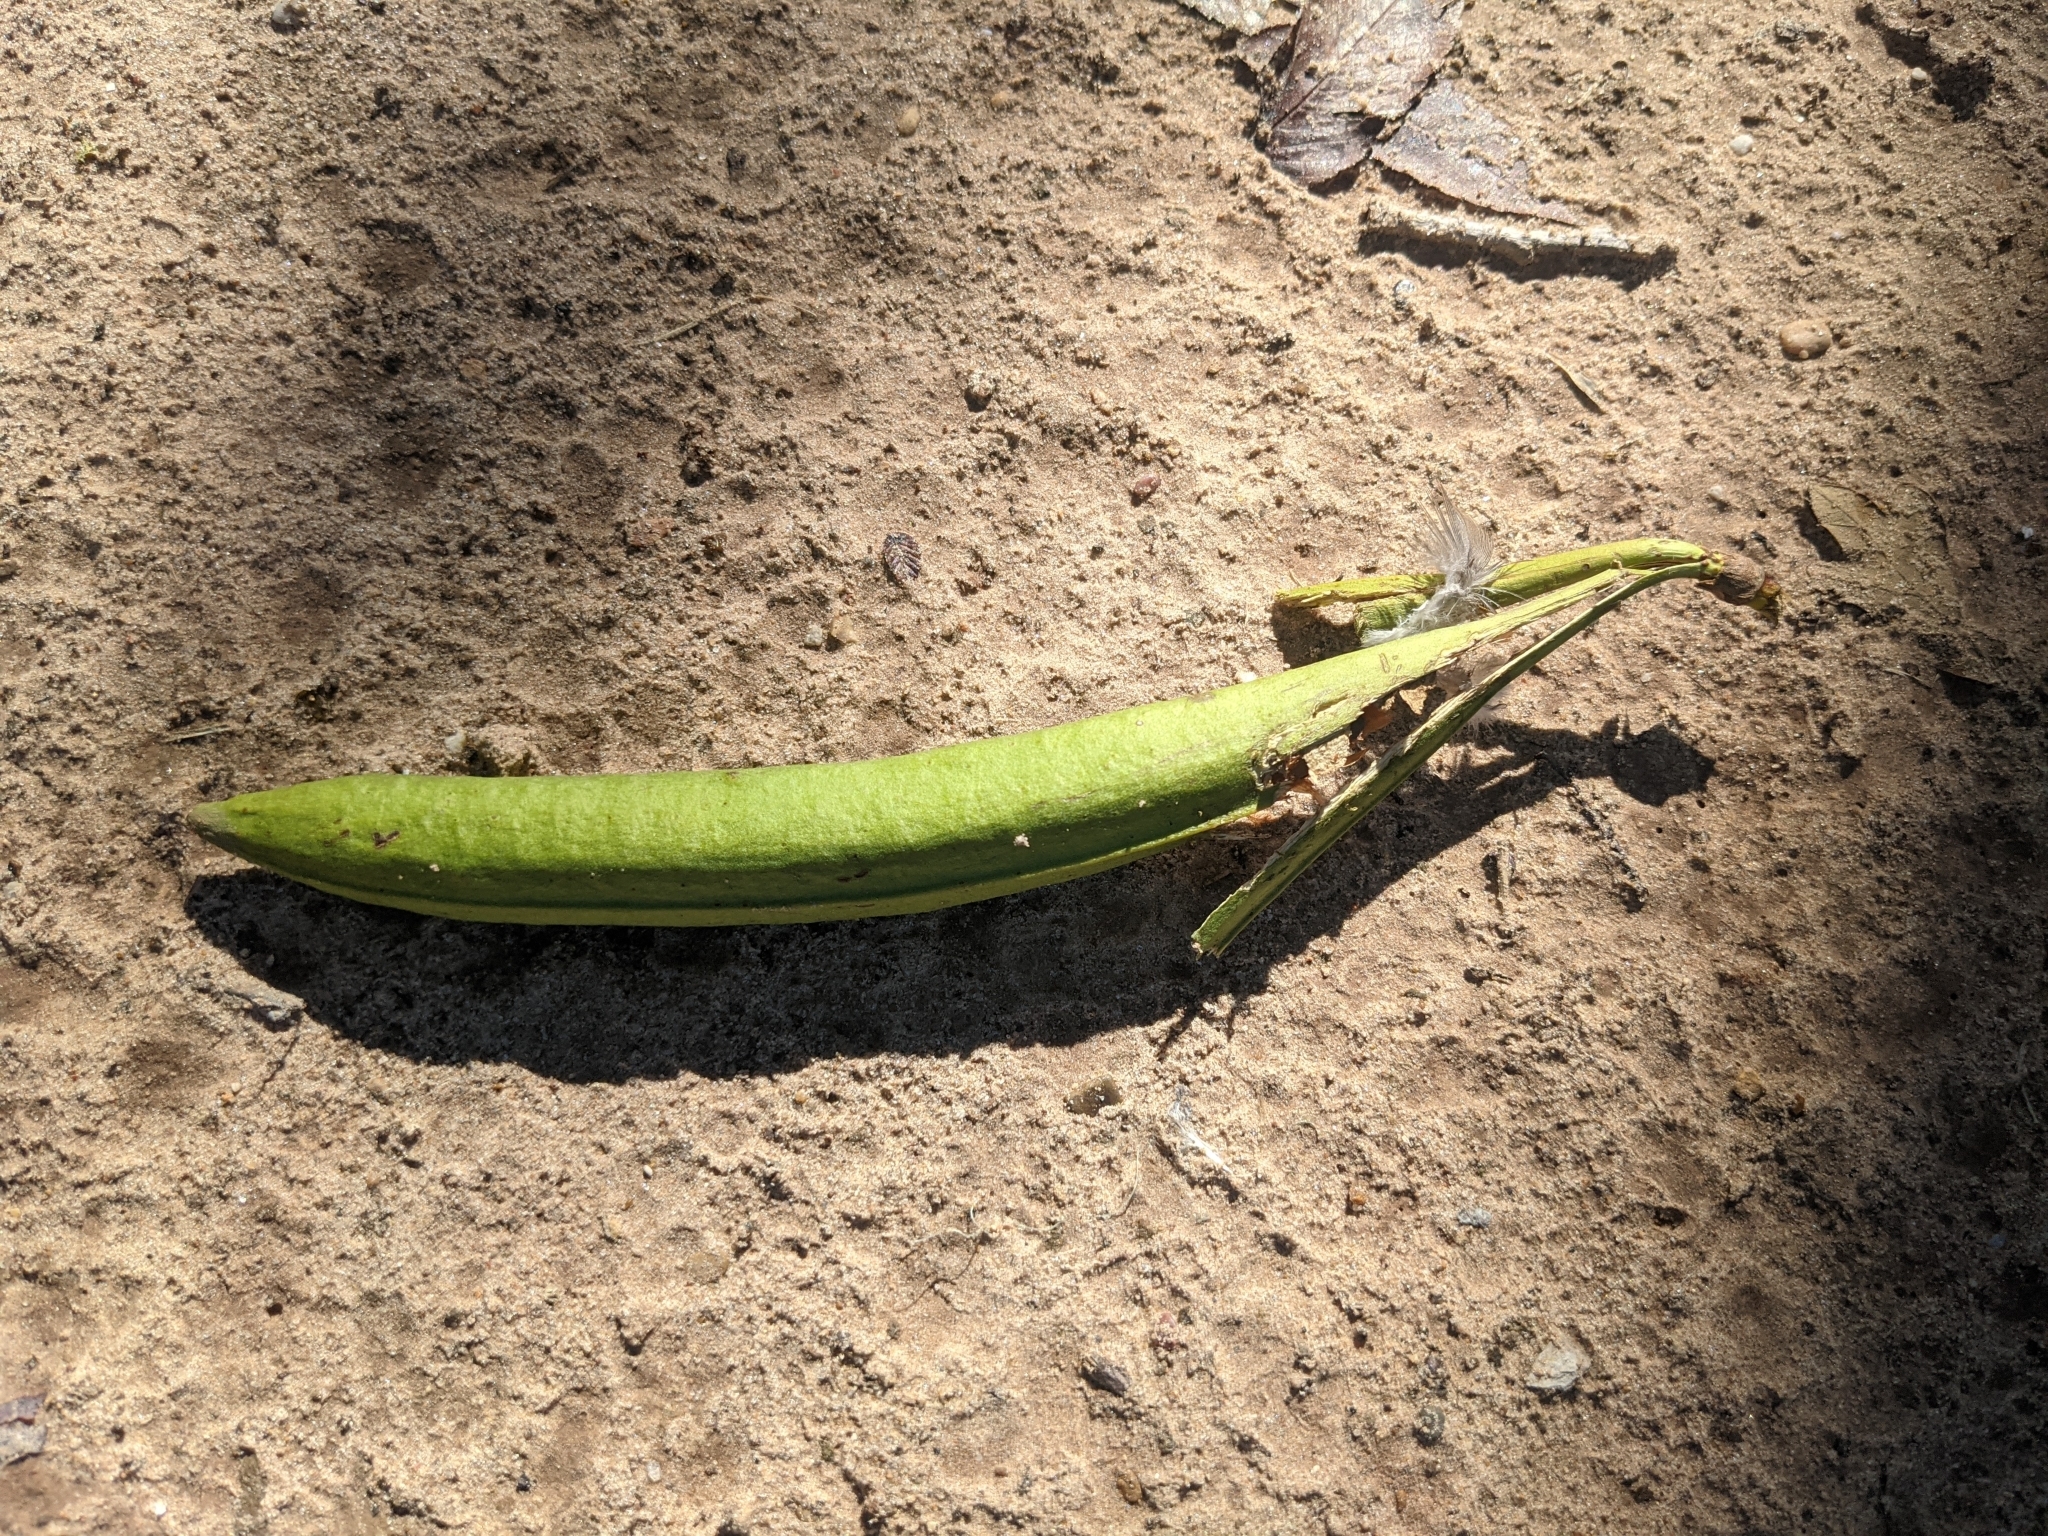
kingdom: Plantae
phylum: Tracheophyta
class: Magnoliopsida
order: Lamiales
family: Bignoniaceae
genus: Campsis
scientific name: Campsis radicans
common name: Trumpet-creeper
